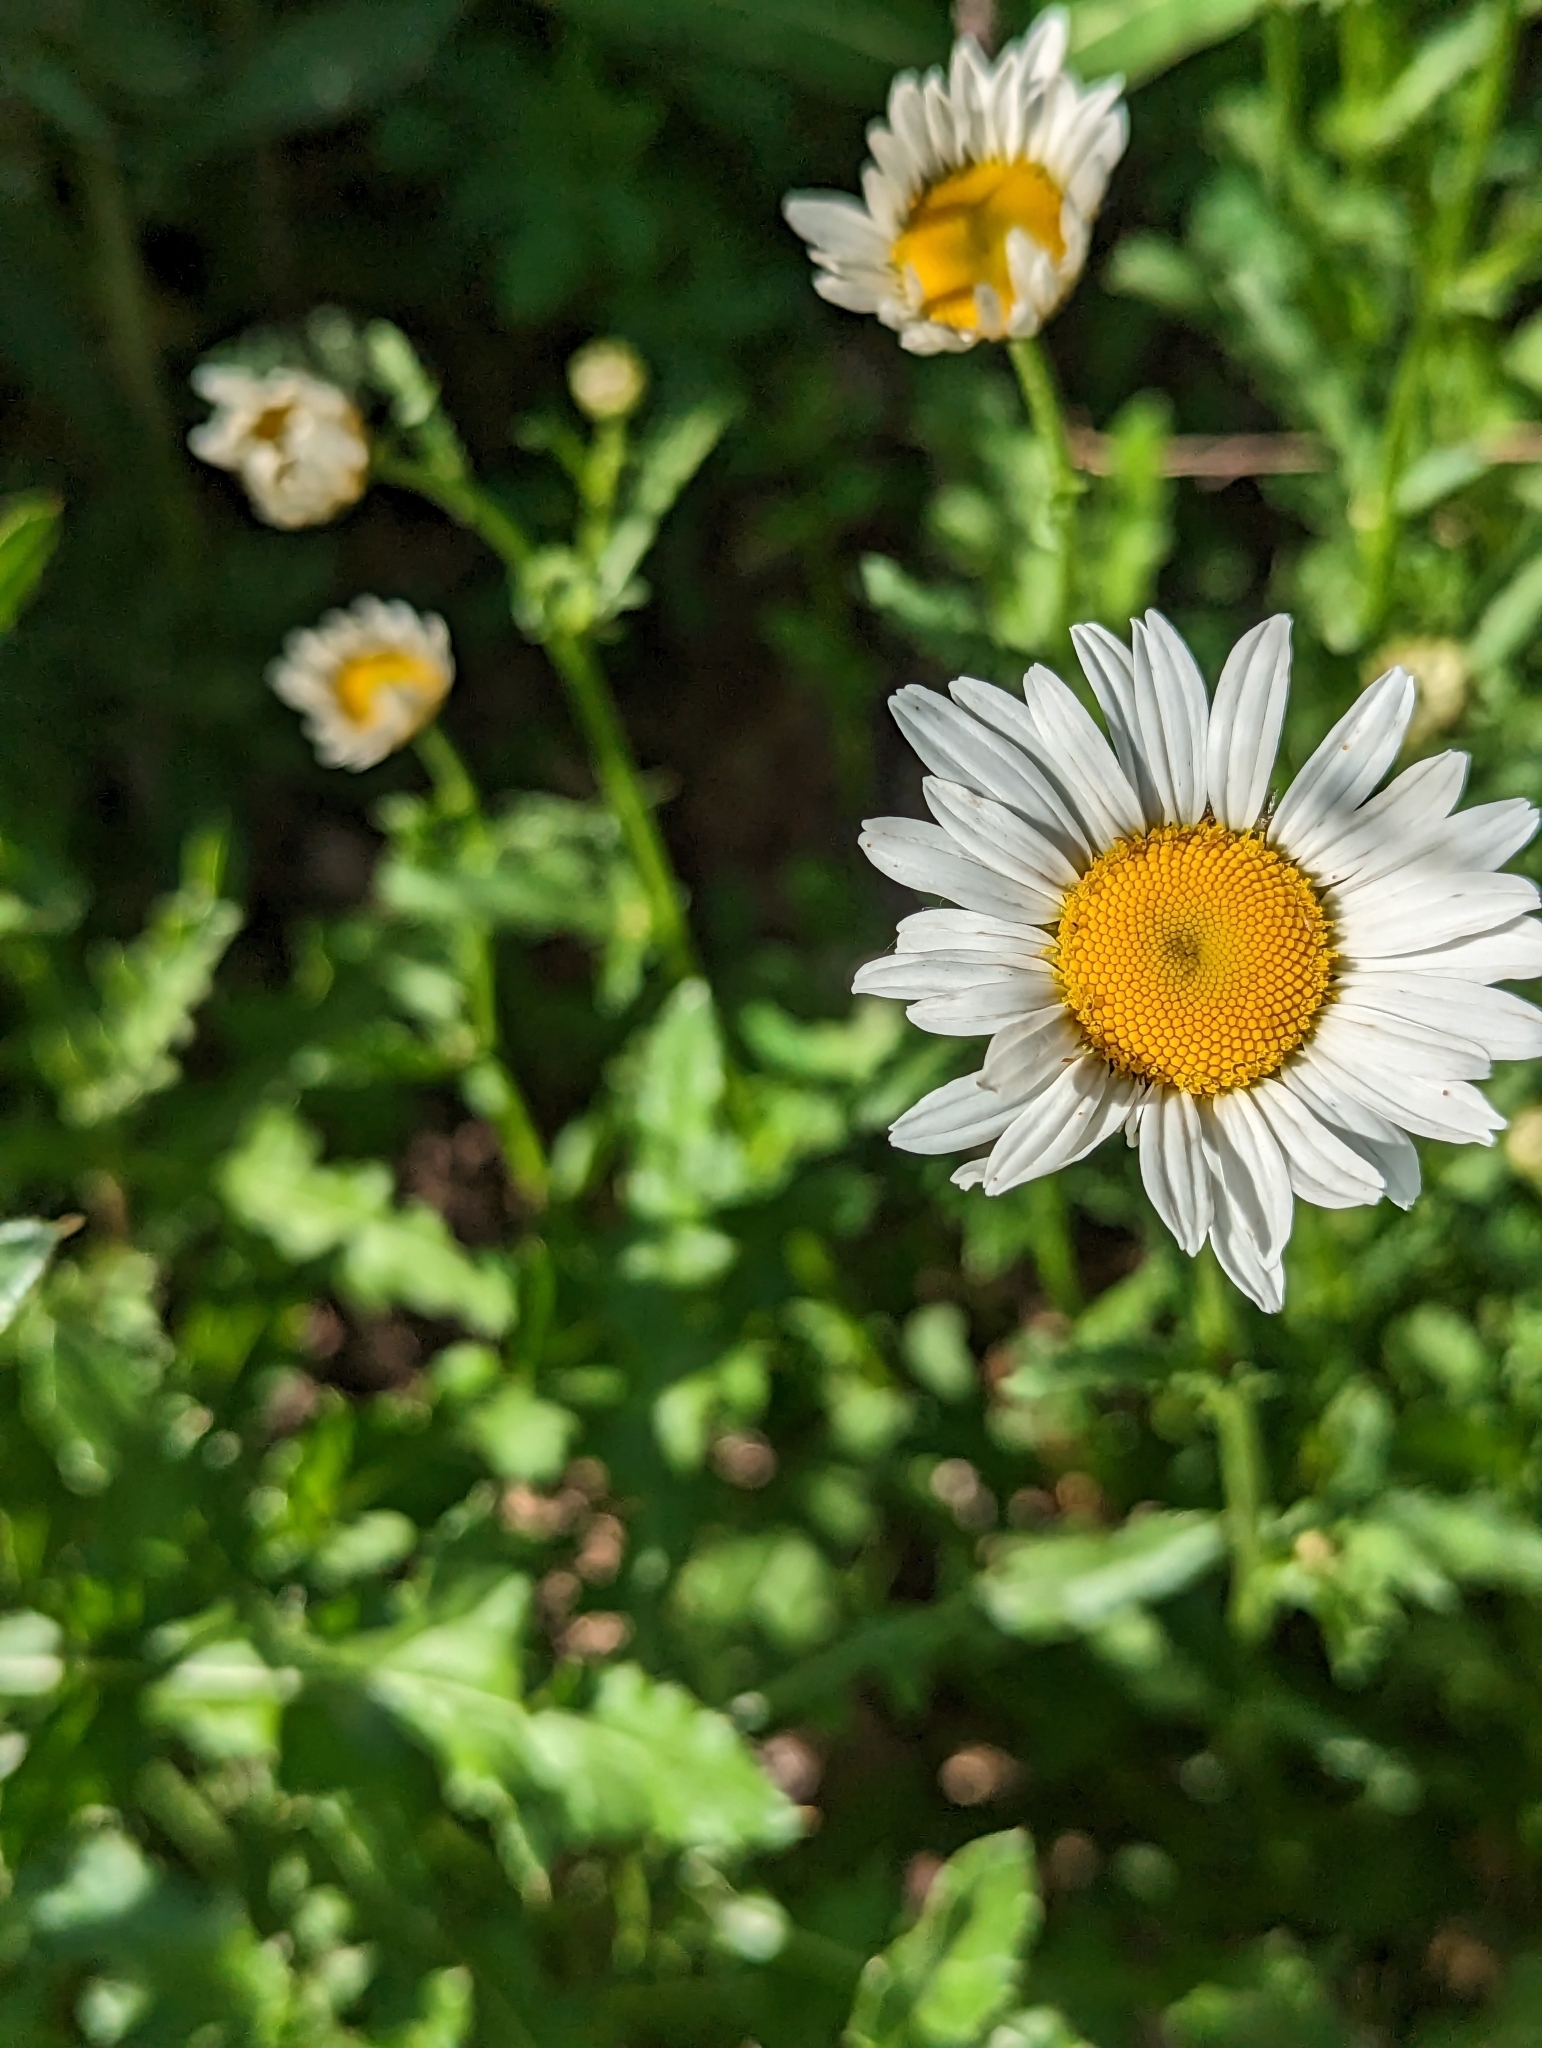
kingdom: Plantae
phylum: Tracheophyta
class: Magnoliopsida
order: Asterales
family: Asteraceae
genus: Leucanthemum
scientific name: Leucanthemum vulgare
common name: Oxeye daisy
